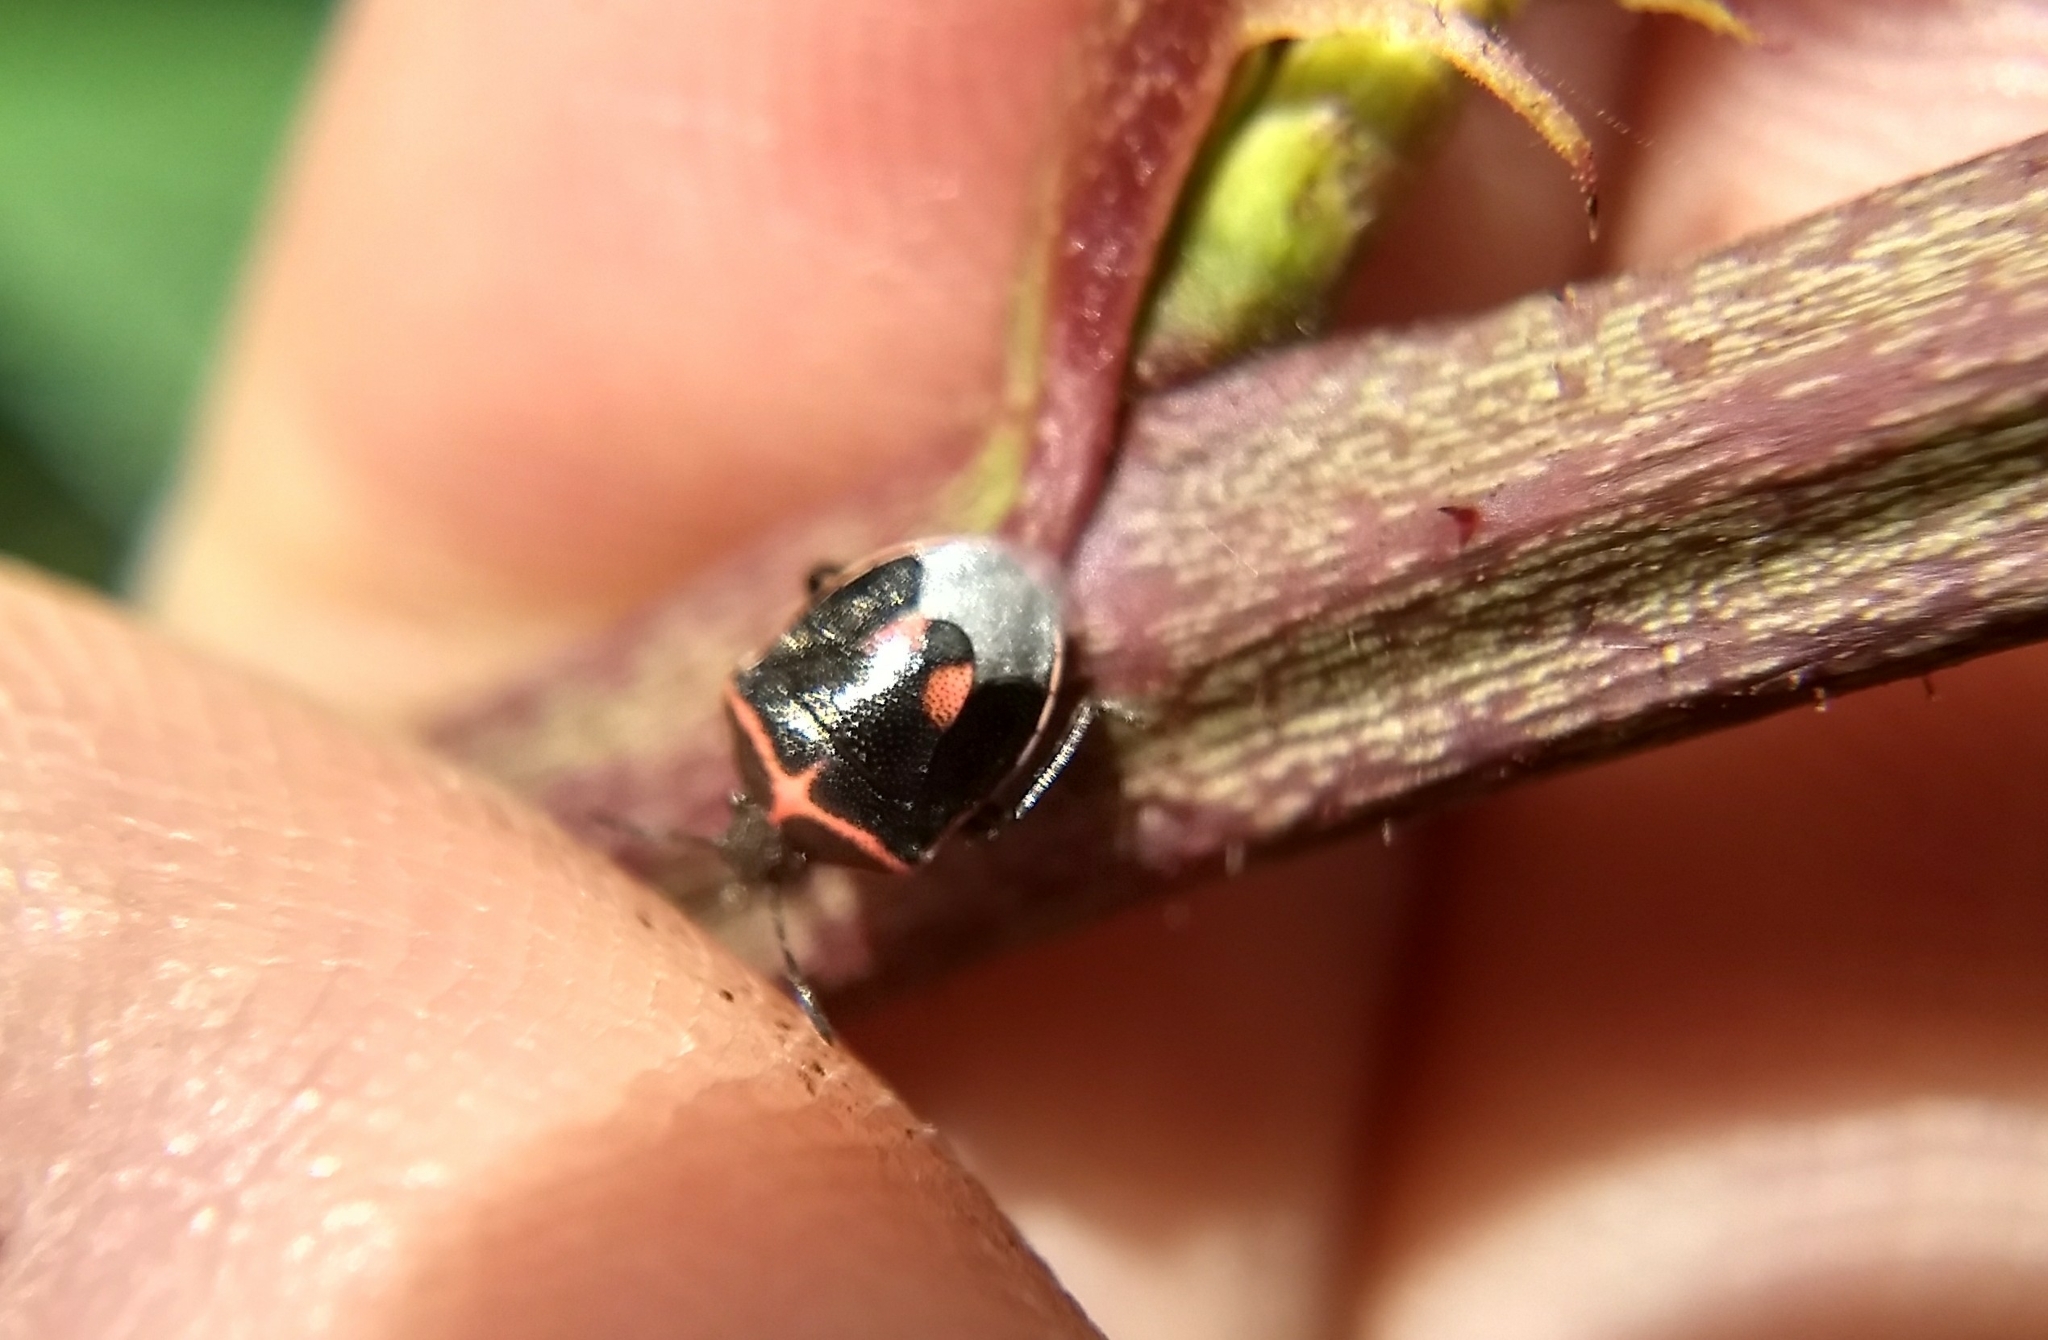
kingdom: Animalia
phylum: Arthropoda
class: Insecta
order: Hemiptera
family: Pentatomidae
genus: Cosmopepla
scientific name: Cosmopepla lintneriana
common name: Twice-stabbed stink bug
